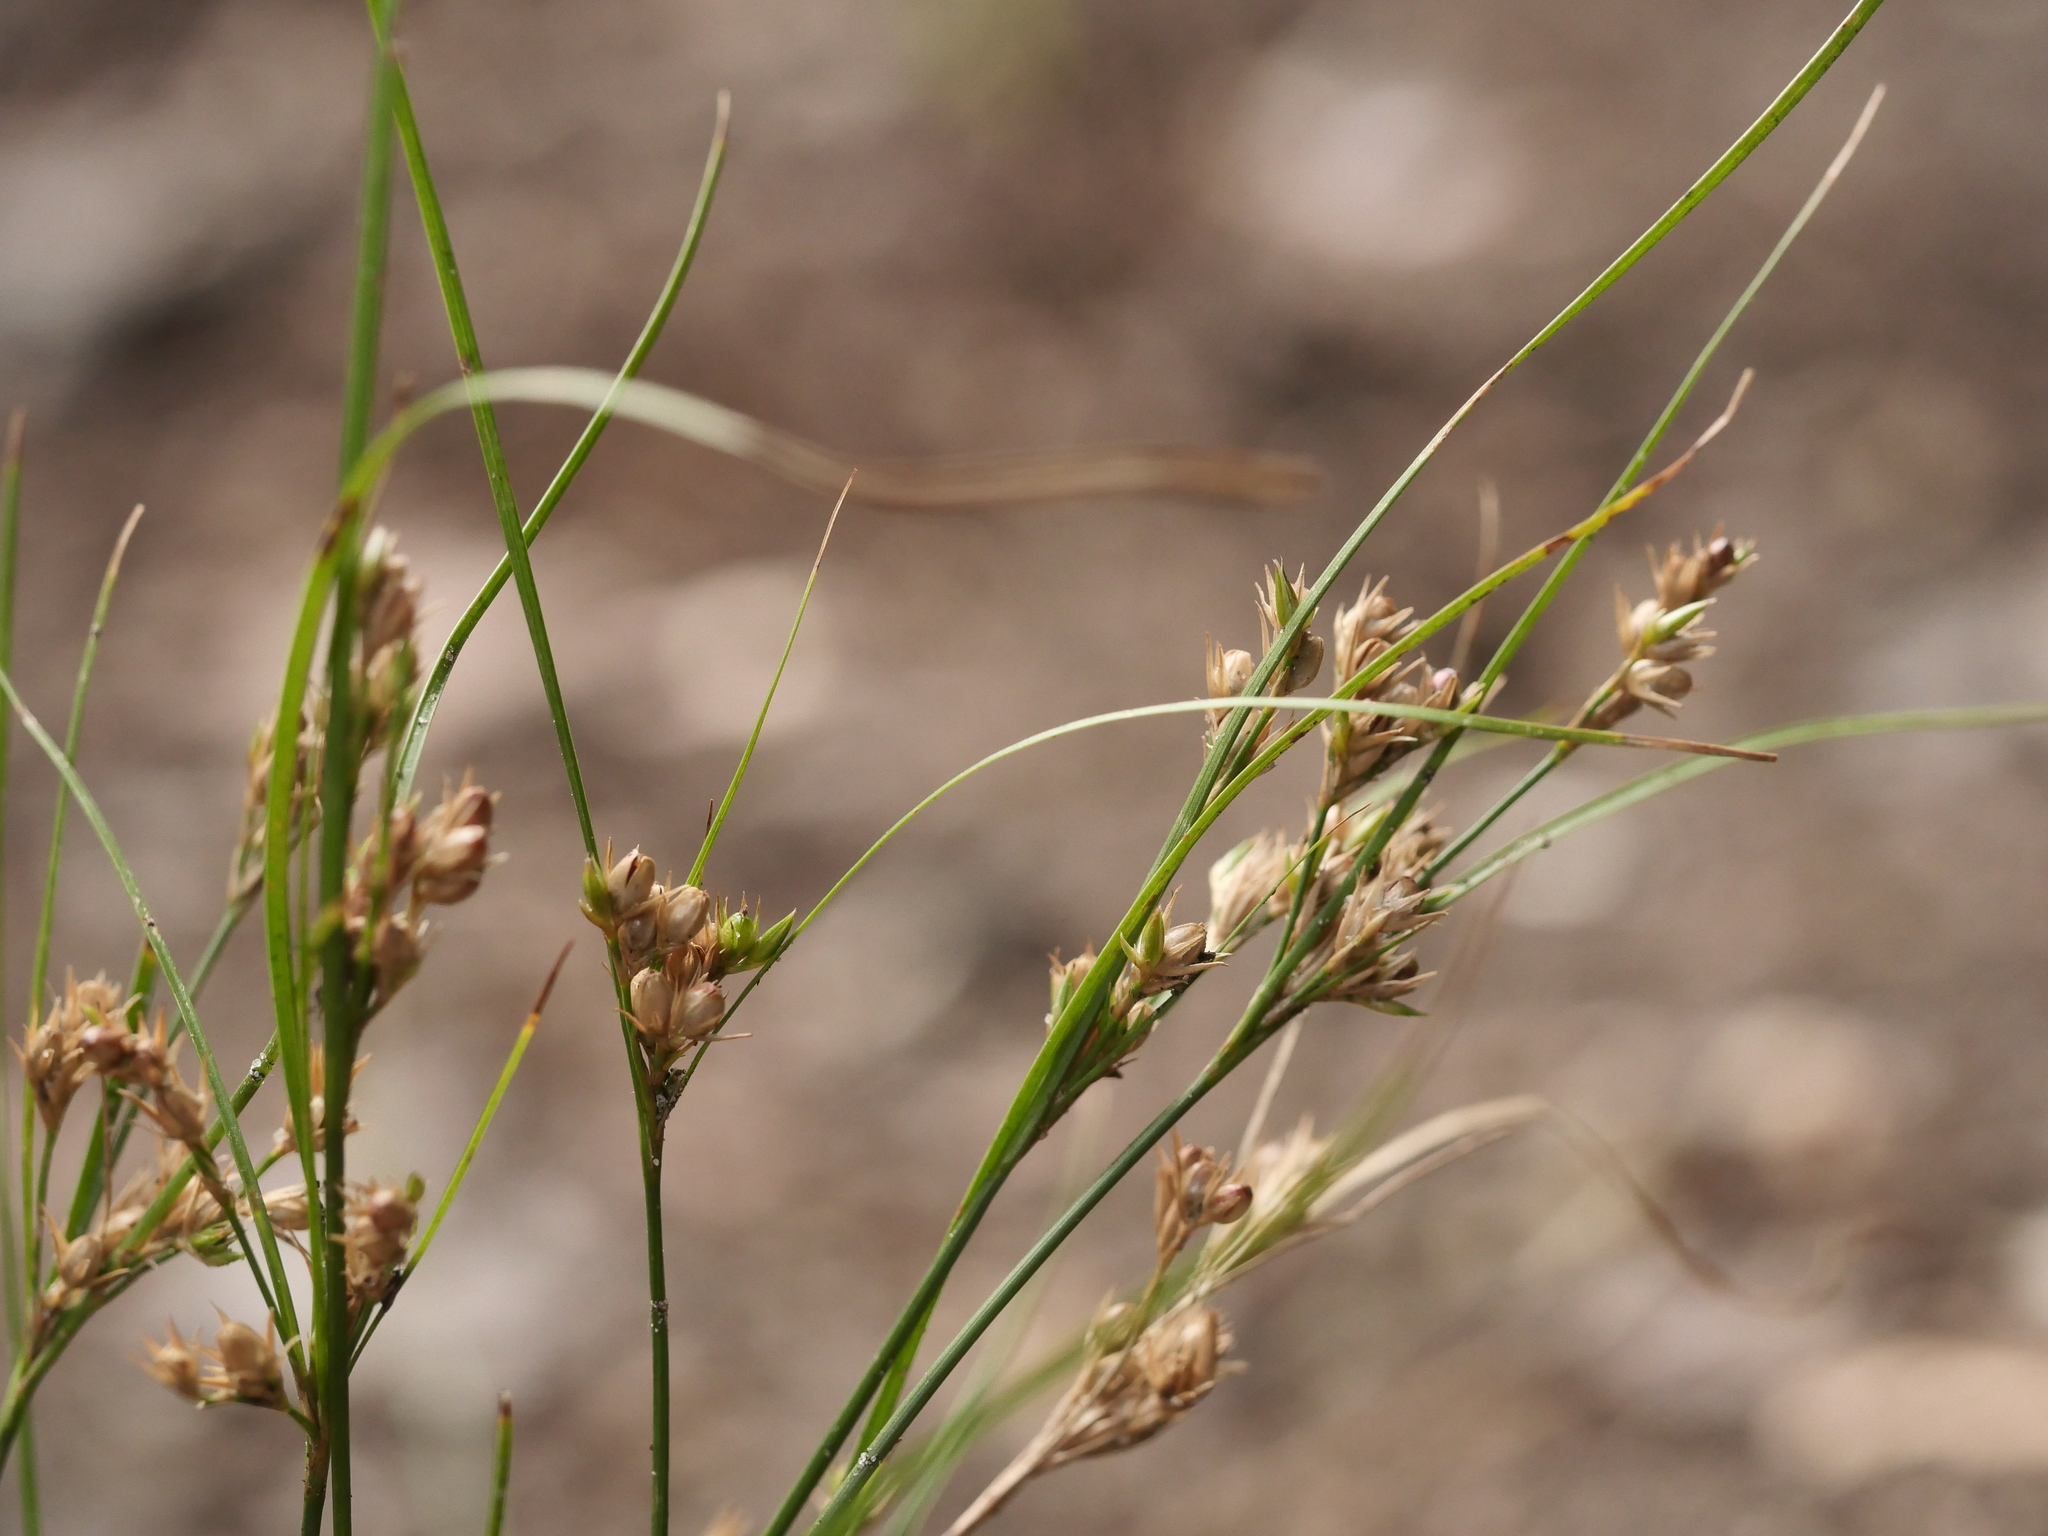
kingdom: Plantae
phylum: Tracheophyta
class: Liliopsida
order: Poales
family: Juncaceae
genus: Juncus
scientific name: Juncus tenuis
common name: Slender rush
